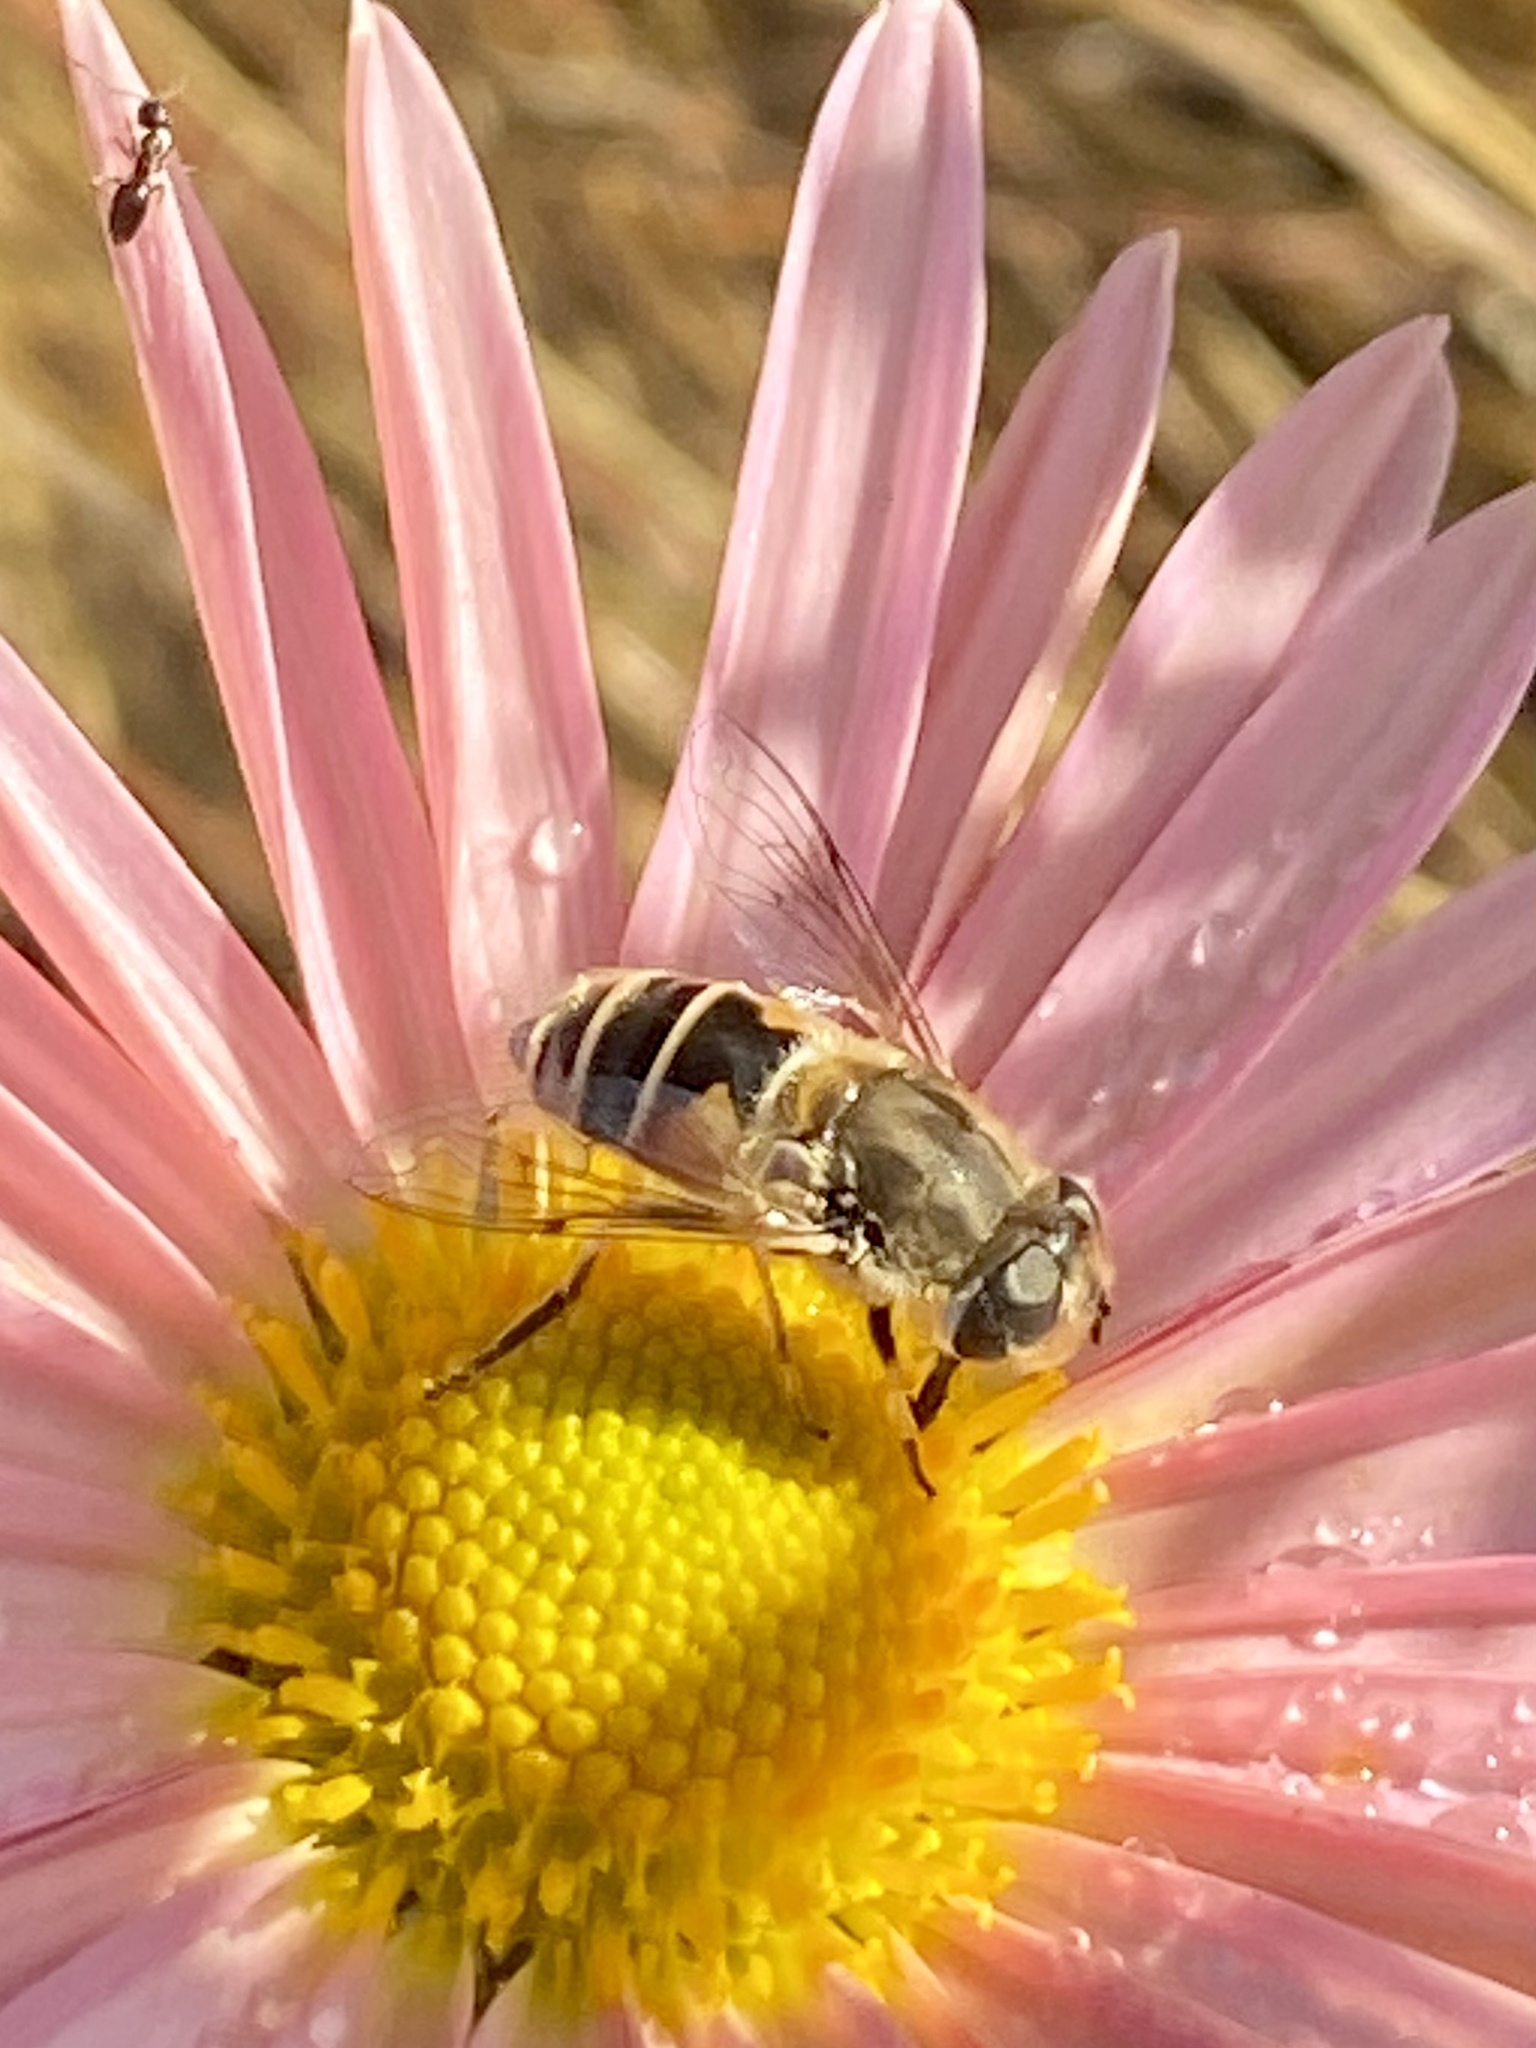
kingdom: Animalia
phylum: Arthropoda
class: Insecta
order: Diptera
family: Syrphidae
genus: Eristalis
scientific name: Eristalis arbustorum
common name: Hover fly
